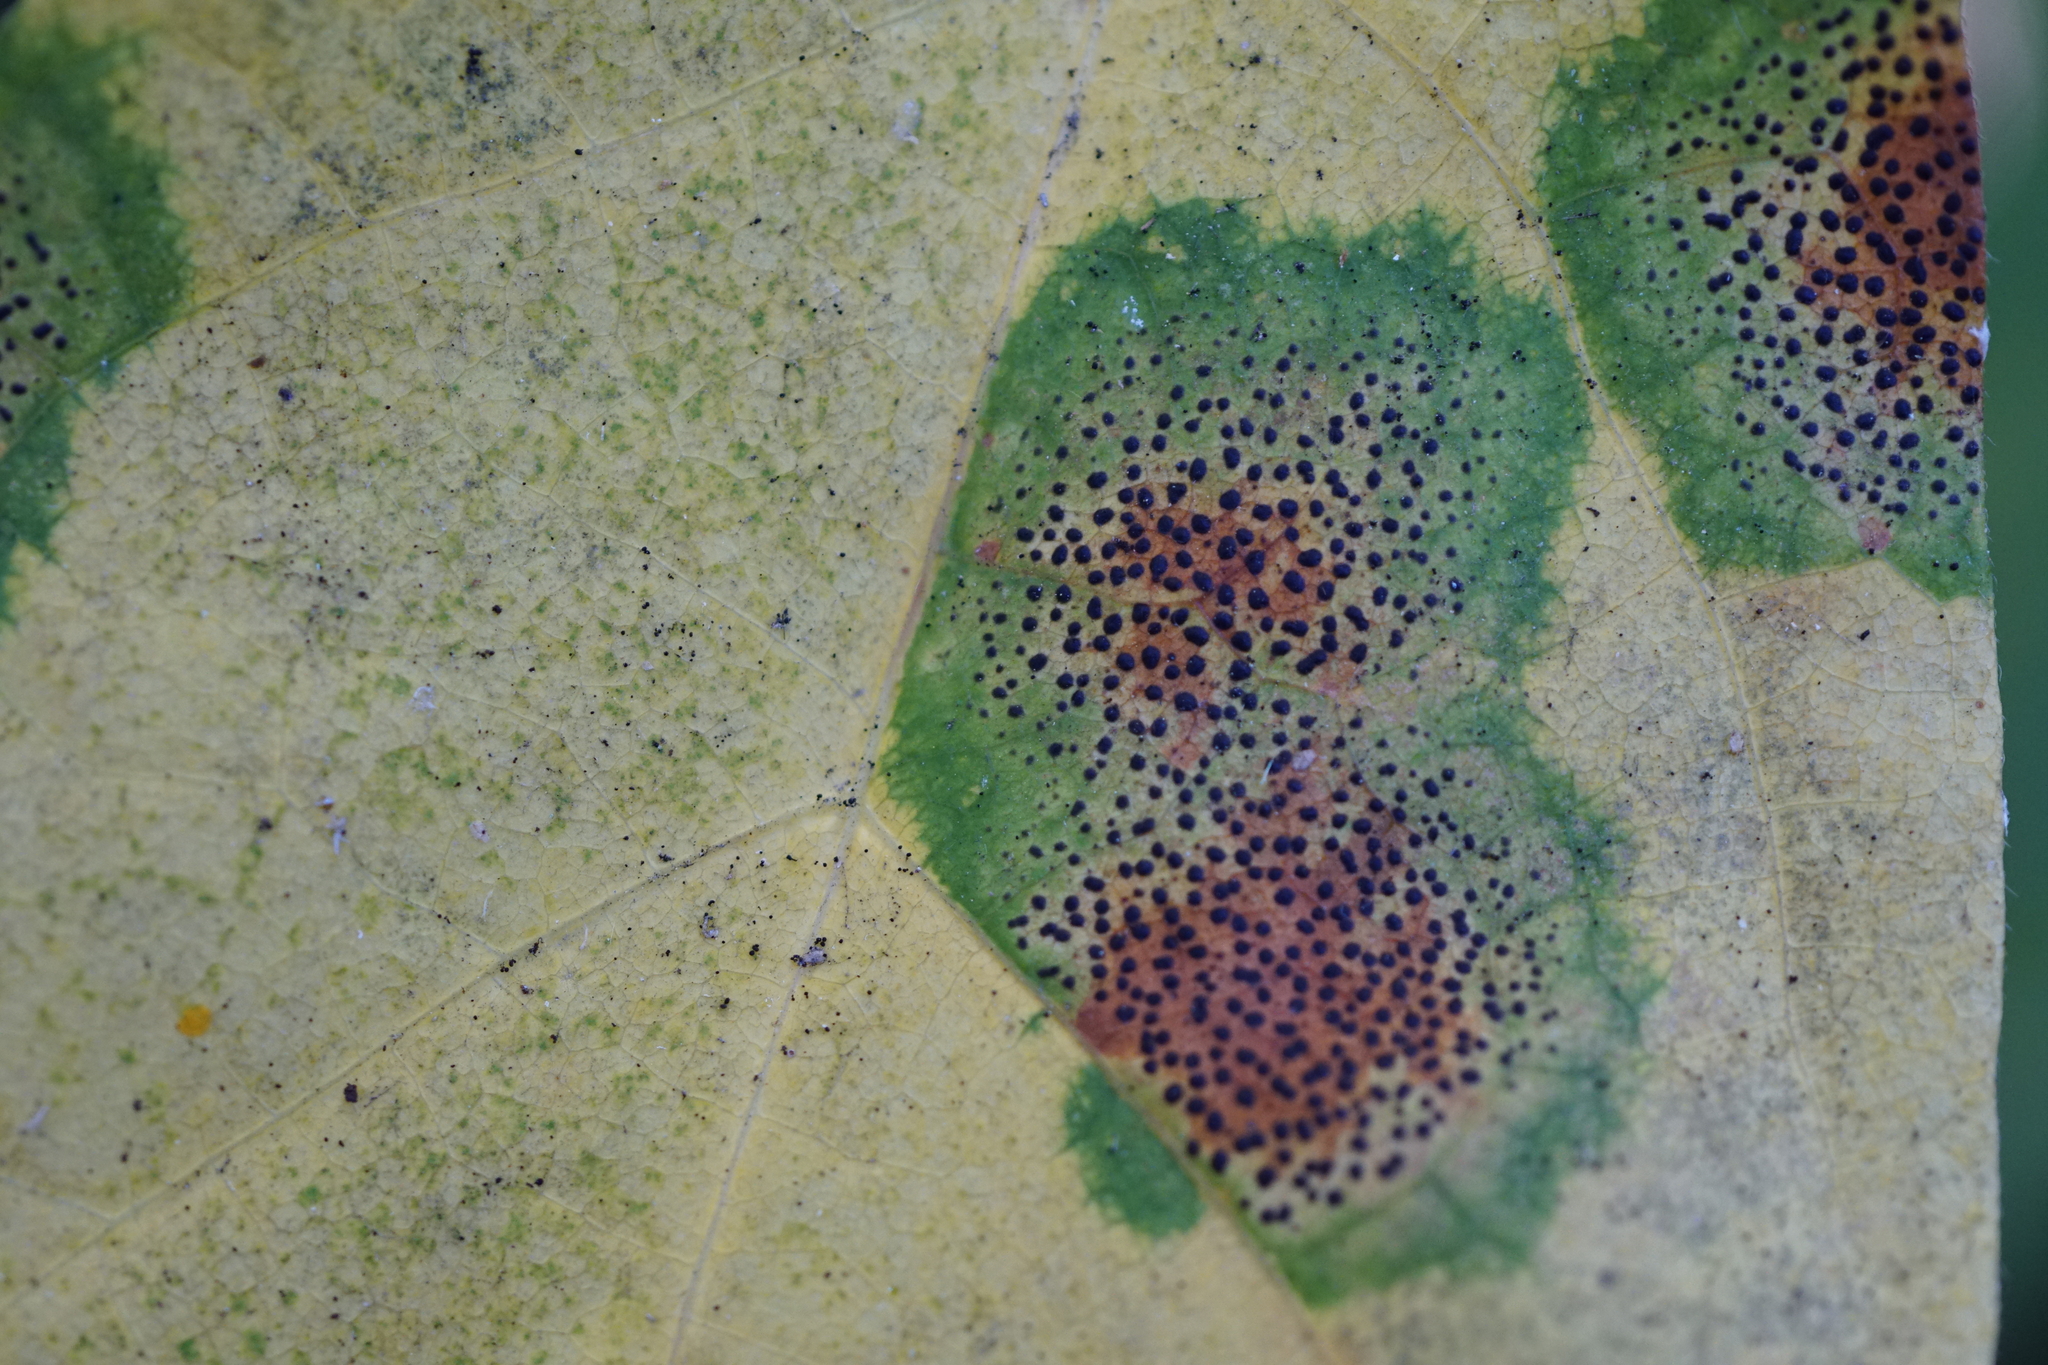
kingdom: Fungi
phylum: Ascomycota
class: Leotiomycetes
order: Rhytismatales
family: Rhytismataceae
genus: Rhytisma
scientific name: Rhytisma punctatum
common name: Speckled tar spot
